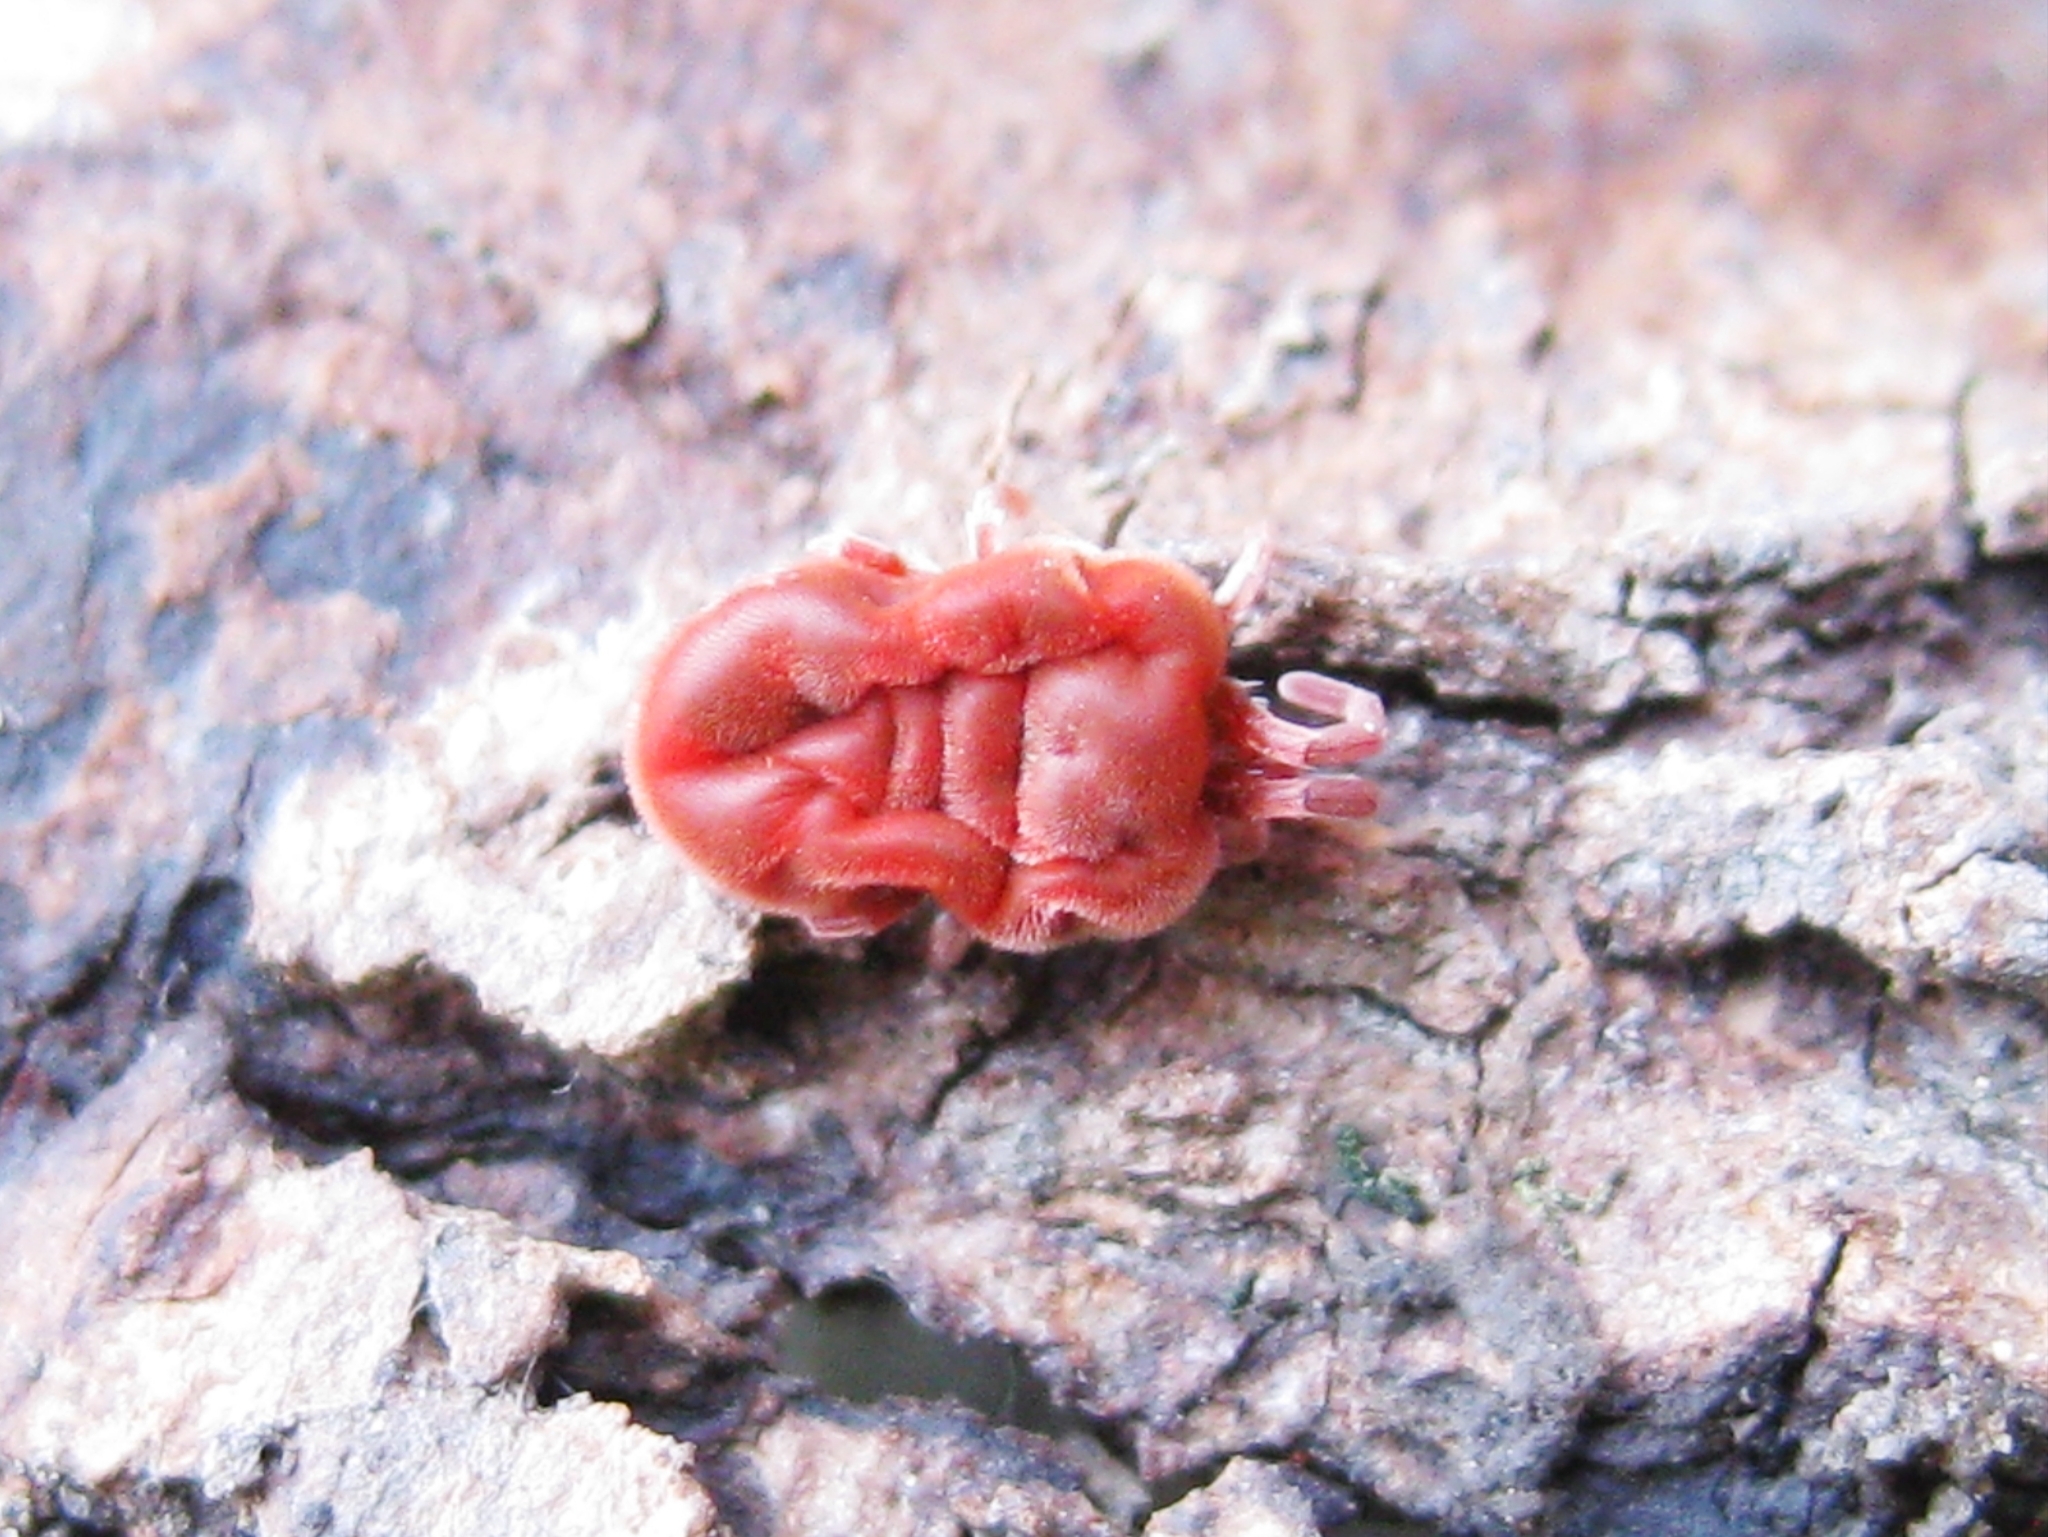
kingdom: Animalia
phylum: Arthropoda
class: Arachnida
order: Trombidiformes
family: Trombidiidae
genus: Allothrombium
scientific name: Allothrombium
